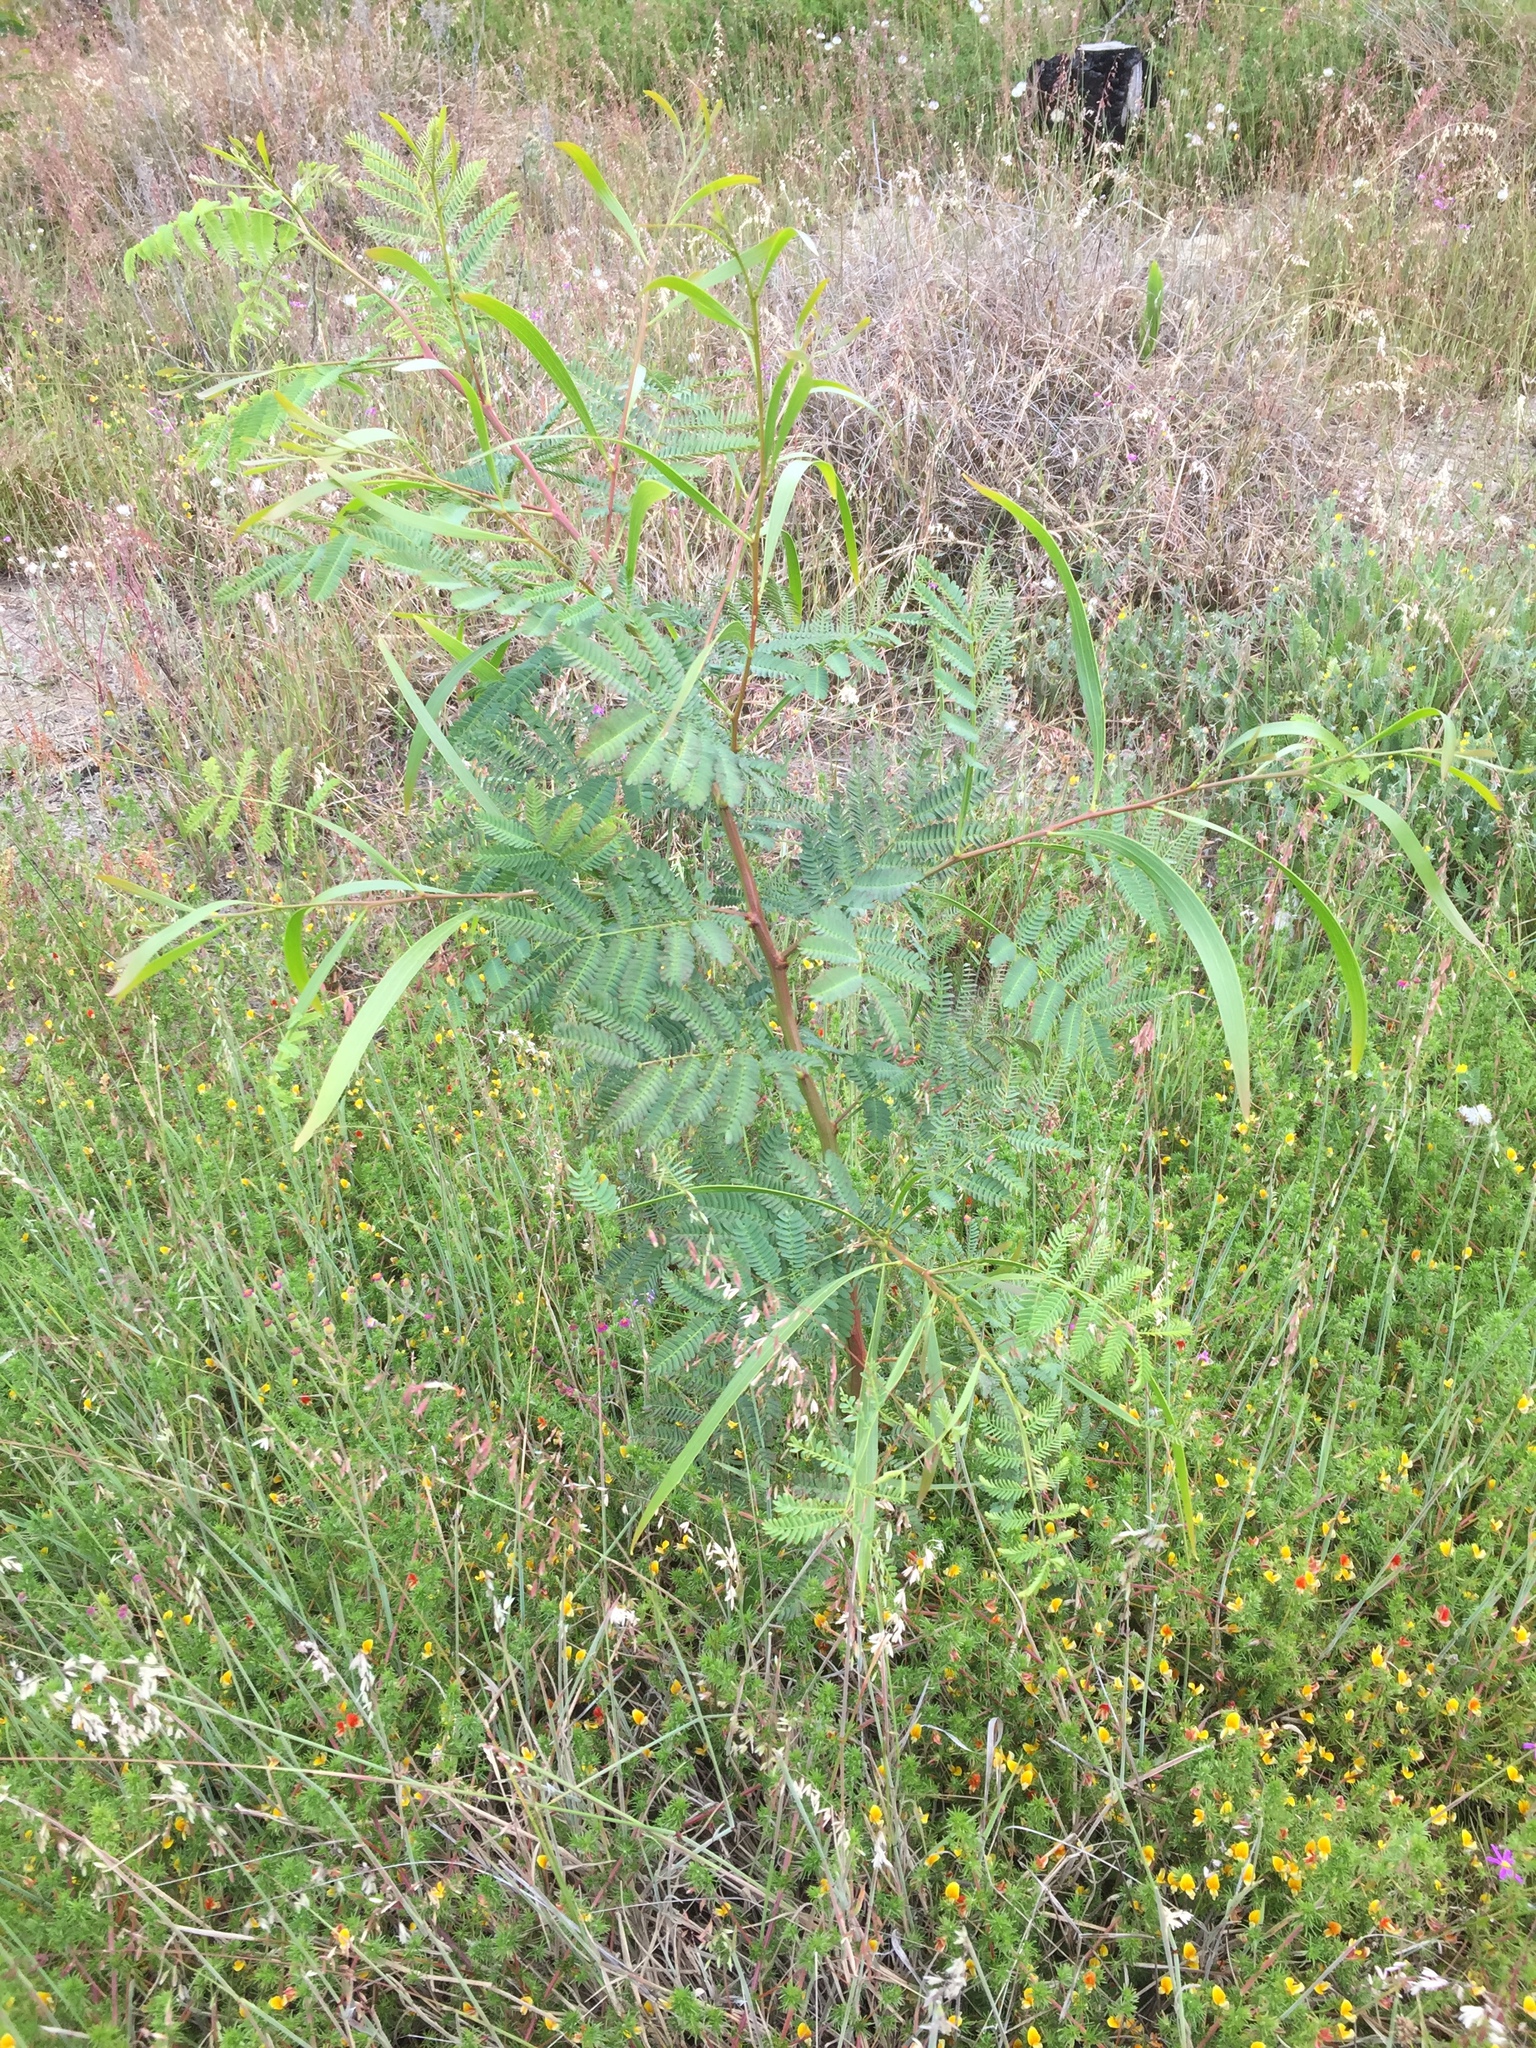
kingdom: Plantae
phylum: Tracheophyta
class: Magnoliopsida
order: Fabales
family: Fabaceae
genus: Acacia
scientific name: Acacia implexa
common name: Black wattle
